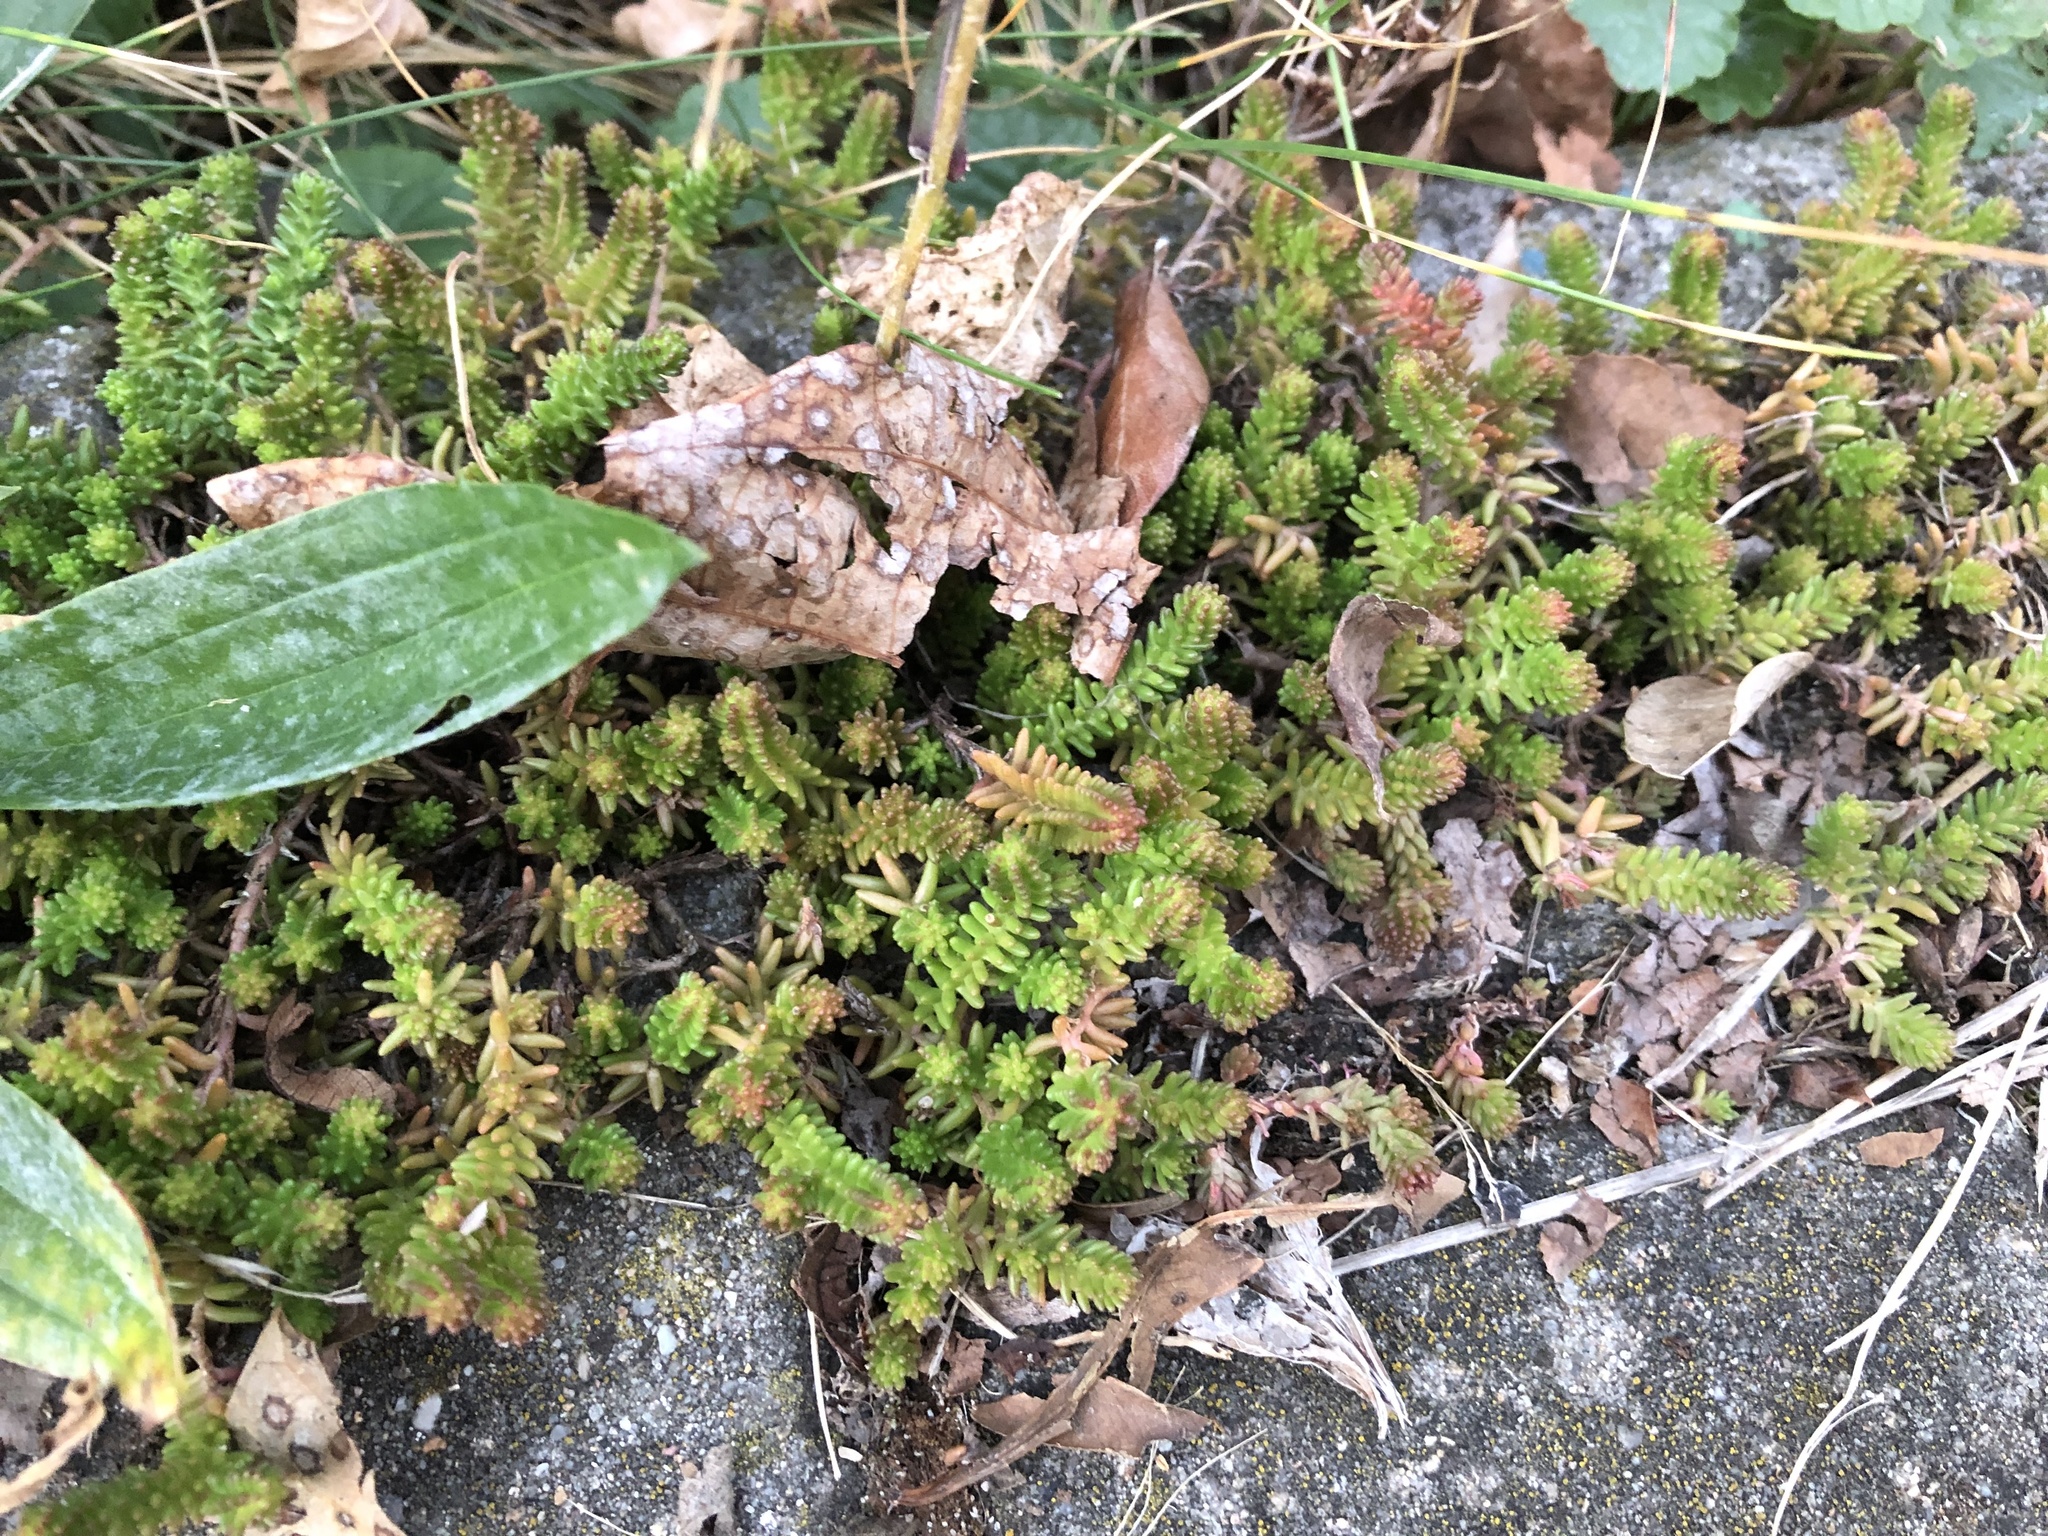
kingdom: Plantae
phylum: Tracheophyta
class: Magnoliopsida
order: Saxifragales
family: Crassulaceae
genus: Sedum
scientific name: Sedum sexangulare
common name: Tasteless stonecrop
